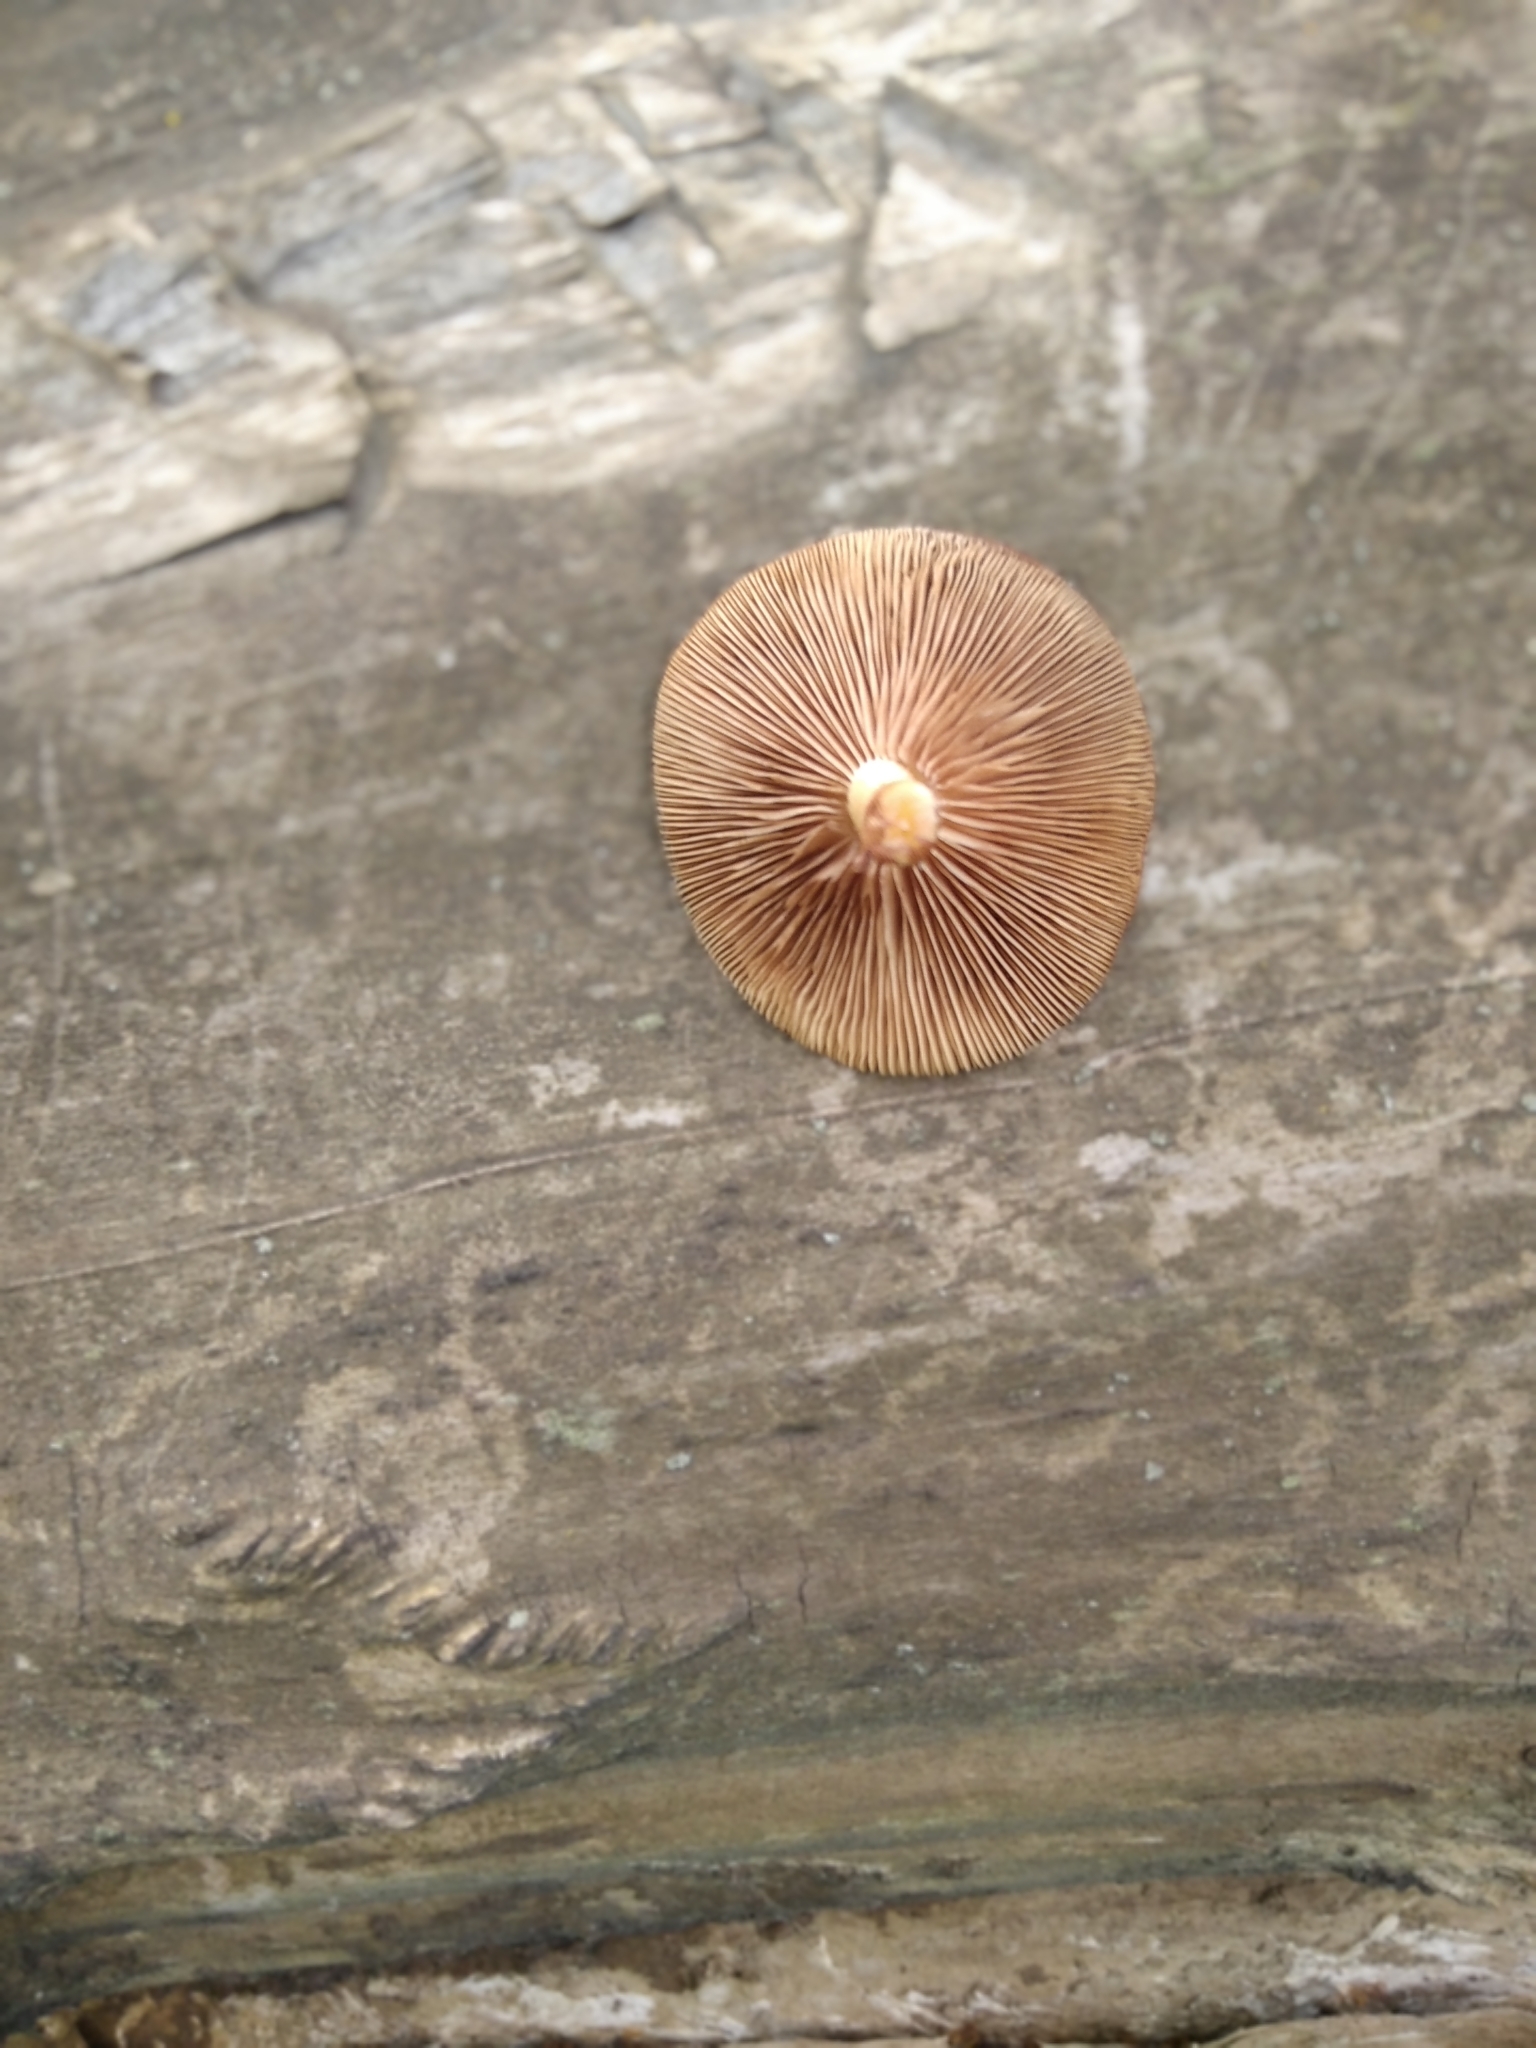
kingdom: Fungi
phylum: Basidiomycota
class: Agaricomycetes
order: Agaricales
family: Strophariaceae
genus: Kuehneromyces
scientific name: Kuehneromyces mutabilis
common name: Sheathed woodtuft
